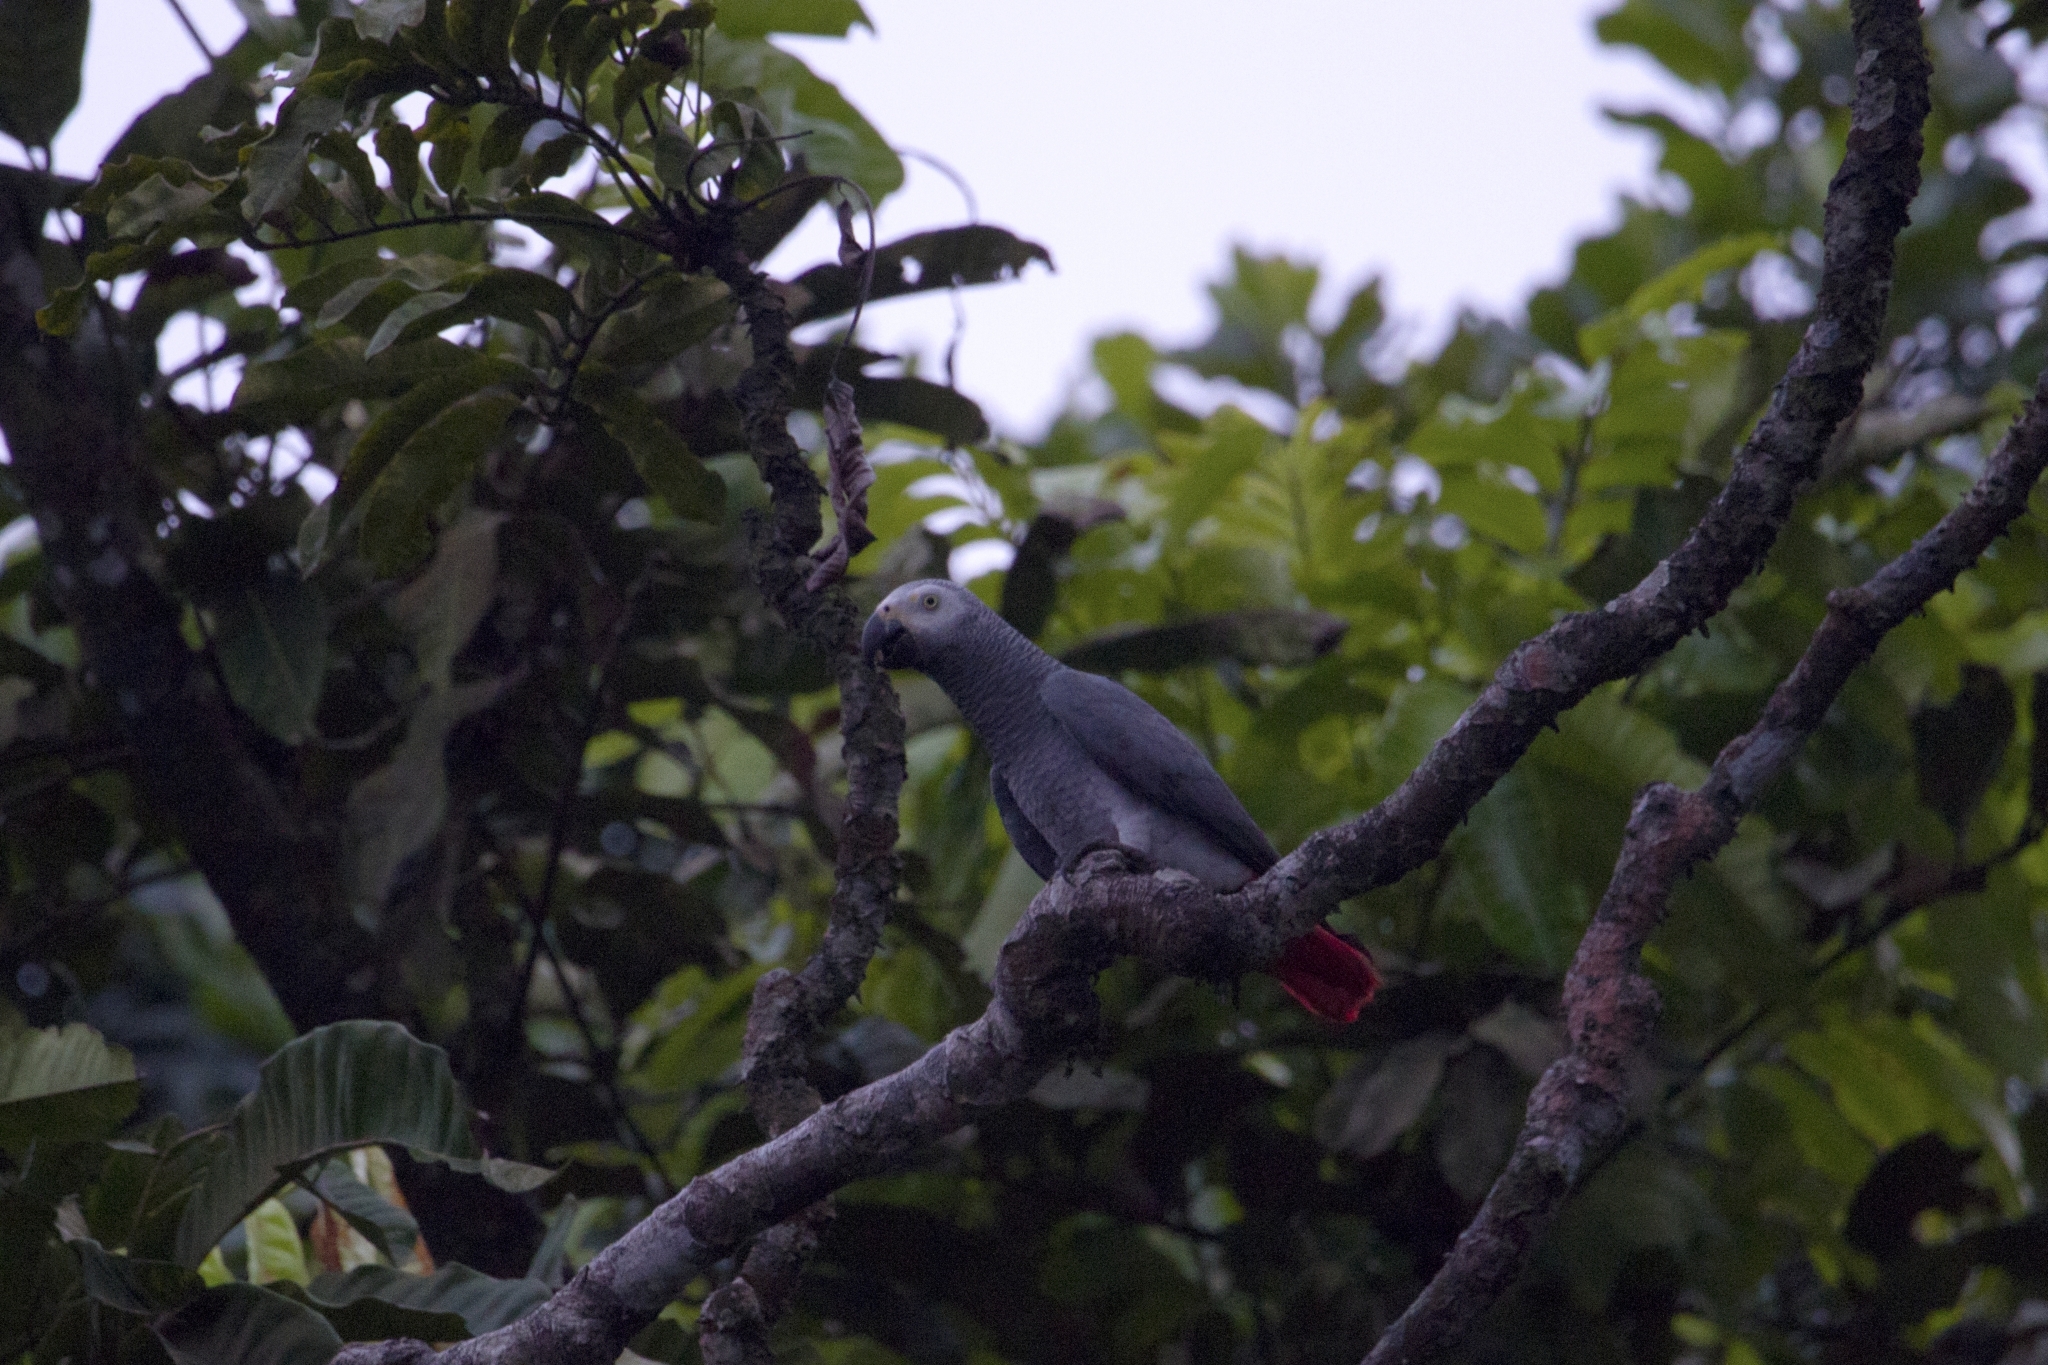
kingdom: Animalia
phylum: Chordata
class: Aves
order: Psittaciformes
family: Psittacidae
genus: Psittacus
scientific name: Psittacus erithacus
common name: Grey parrot
